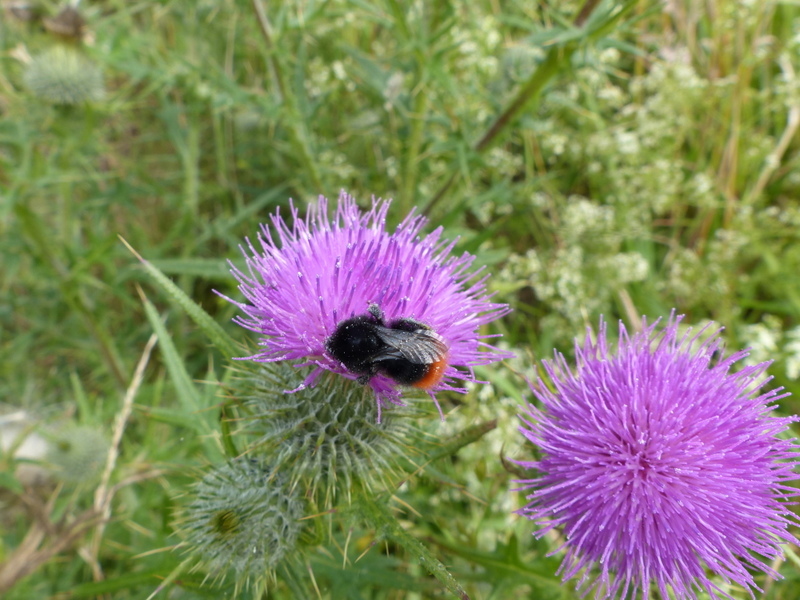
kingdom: Animalia
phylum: Arthropoda
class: Insecta
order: Hymenoptera
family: Apidae
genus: Bombus
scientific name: Bombus lapidarius
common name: Large red-tailed humble-bee
